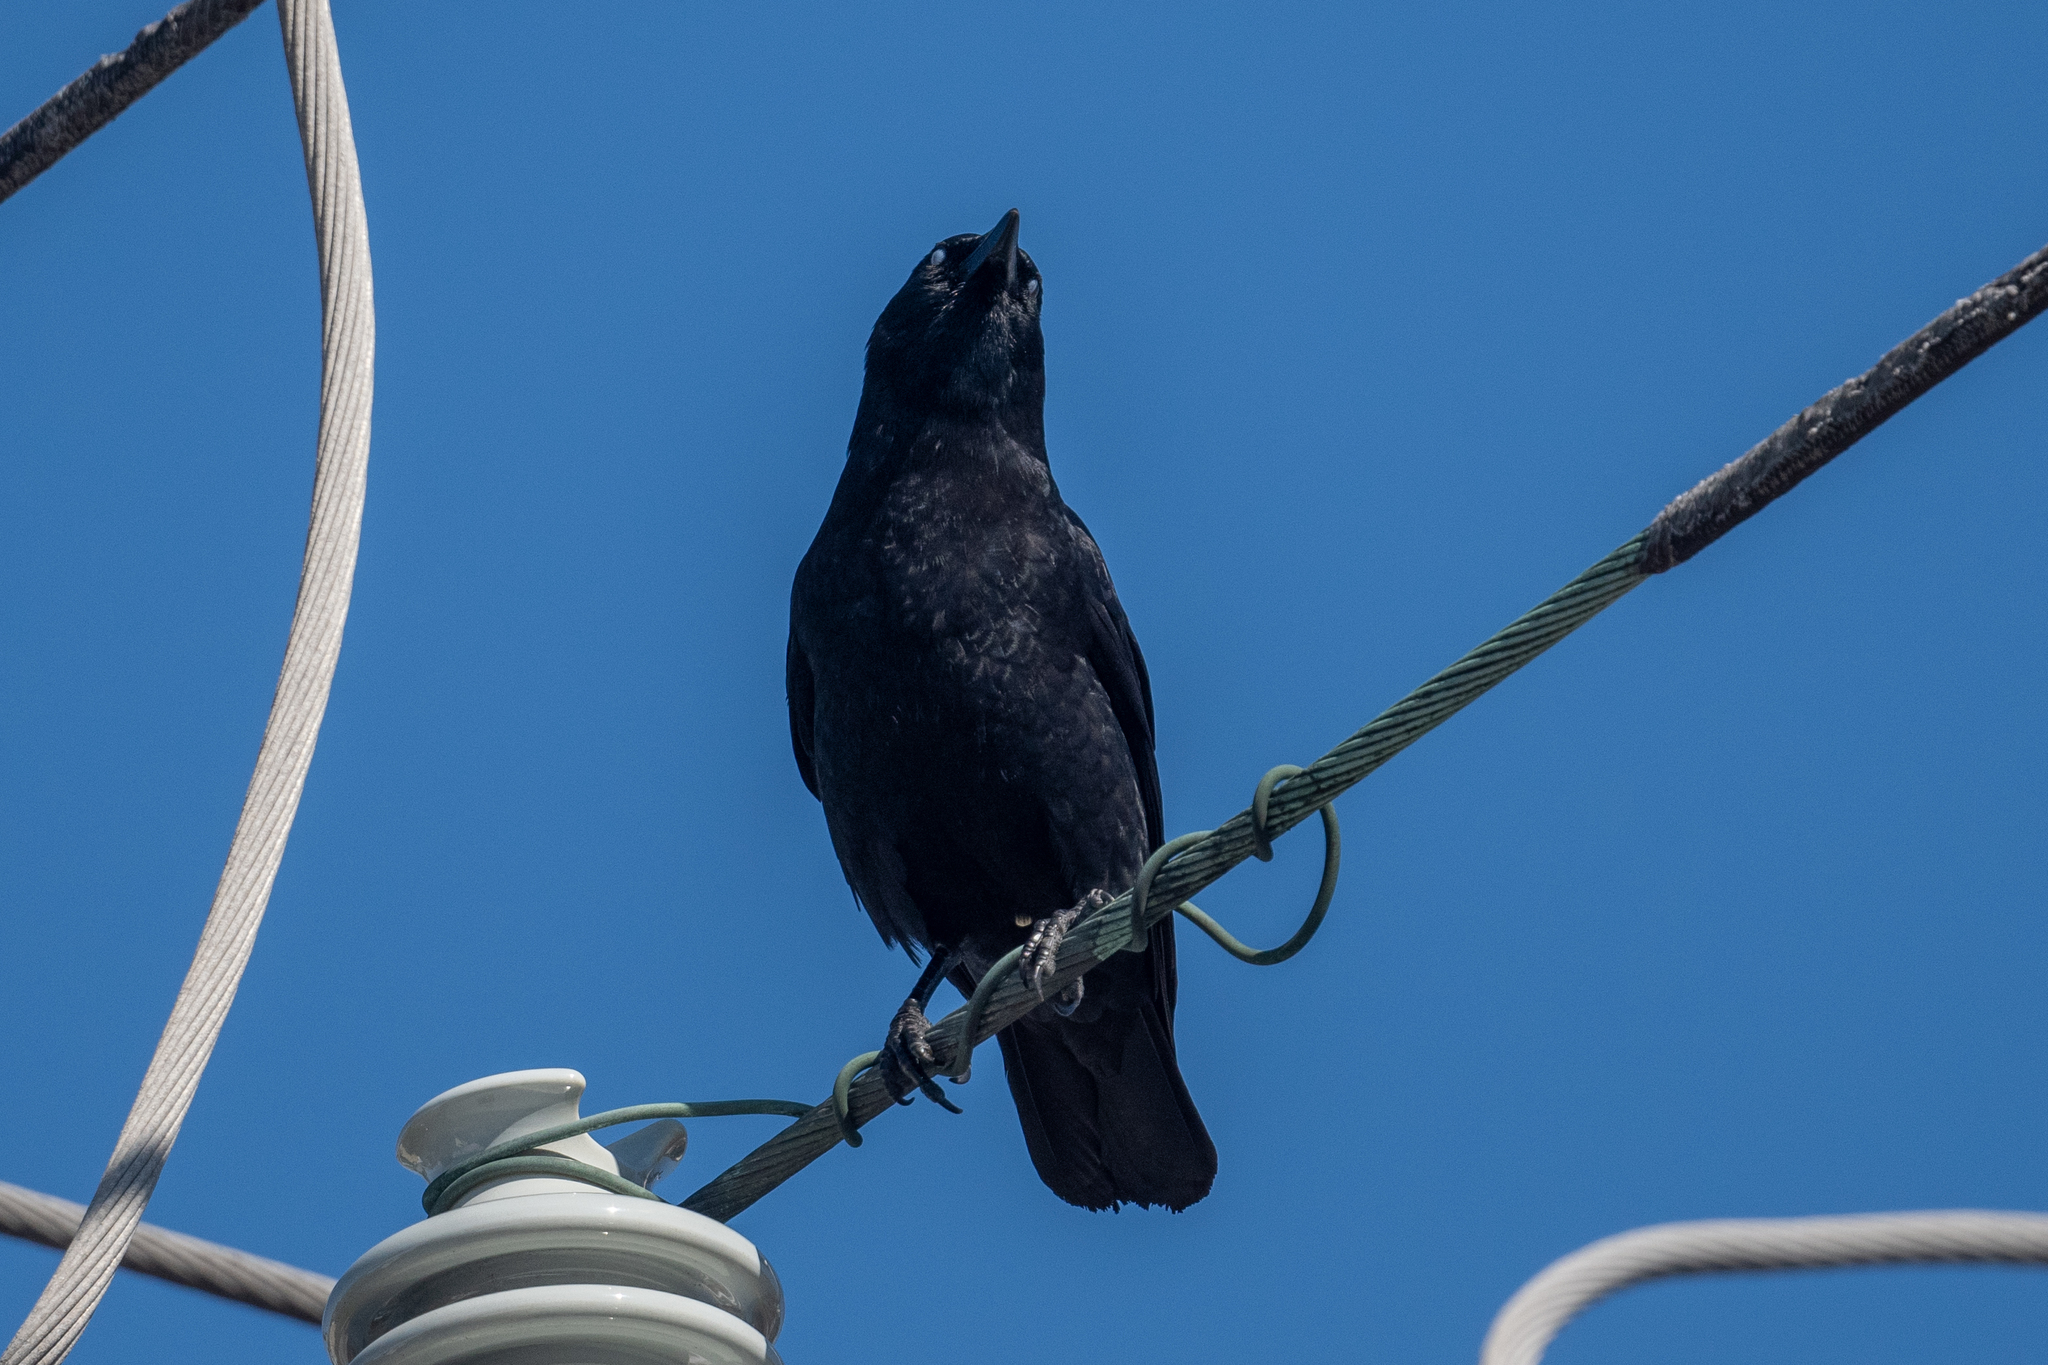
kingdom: Animalia
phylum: Chordata
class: Aves
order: Passeriformes
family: Corvidae
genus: Corvus
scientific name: Corvus brachyrhynchos
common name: American crow
